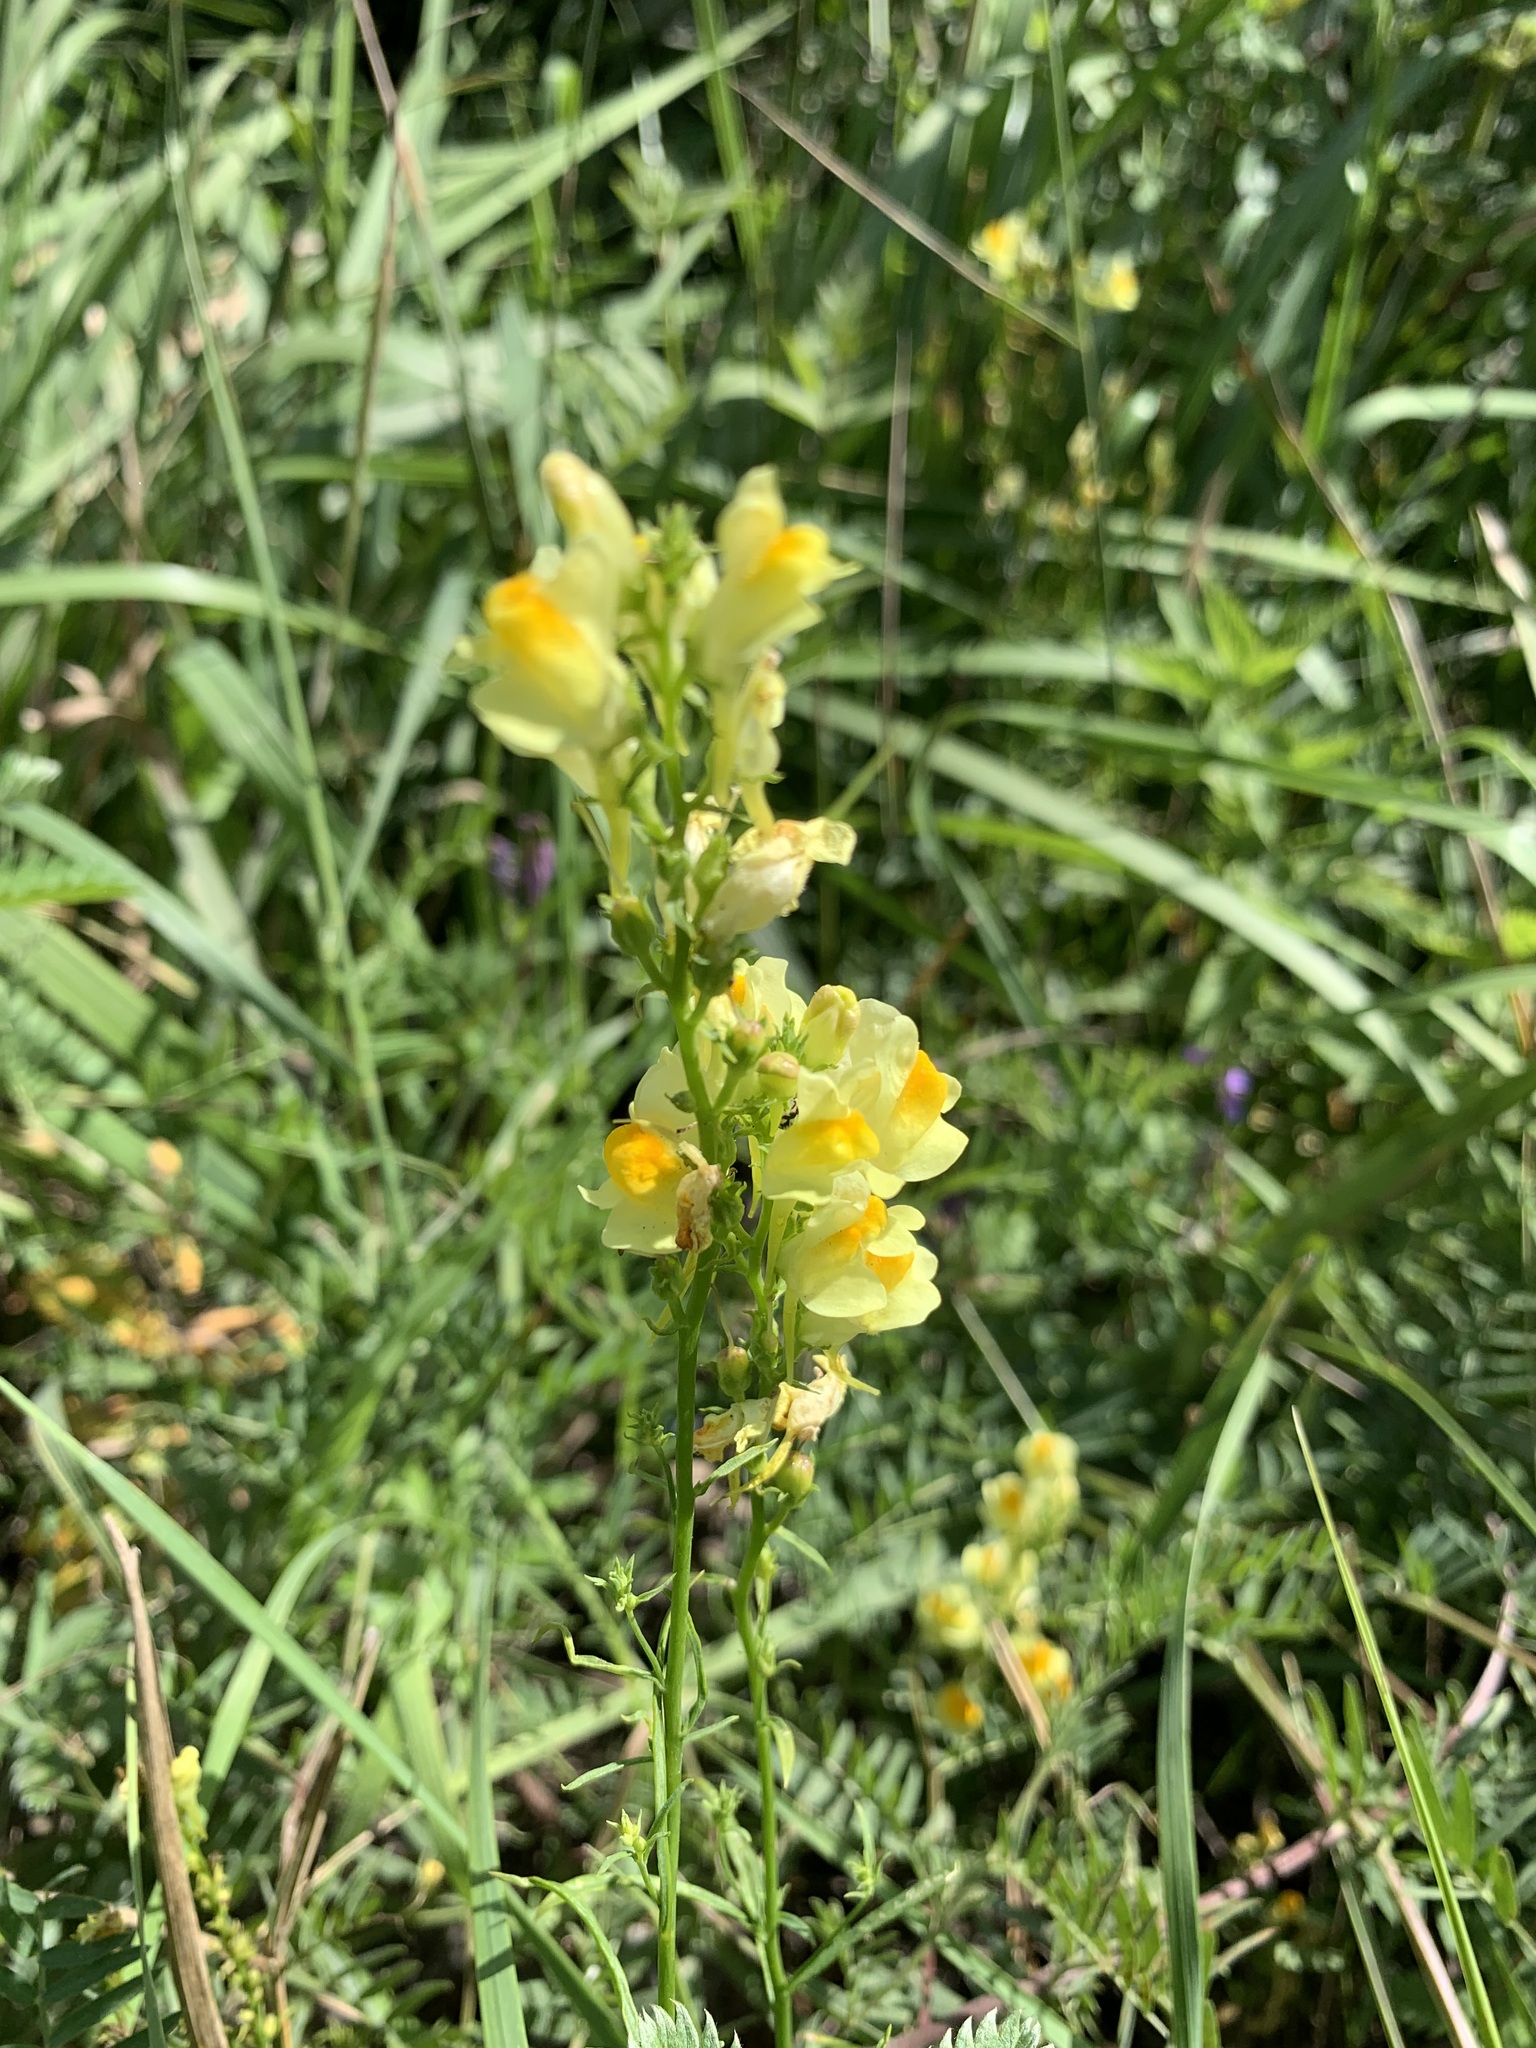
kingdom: Plantae
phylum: Tracheophyta
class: Magnoliopsida
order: Lamiales
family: Plantaginaceae
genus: Linaria
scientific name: Linaria vulgaris
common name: Butter and eggs
